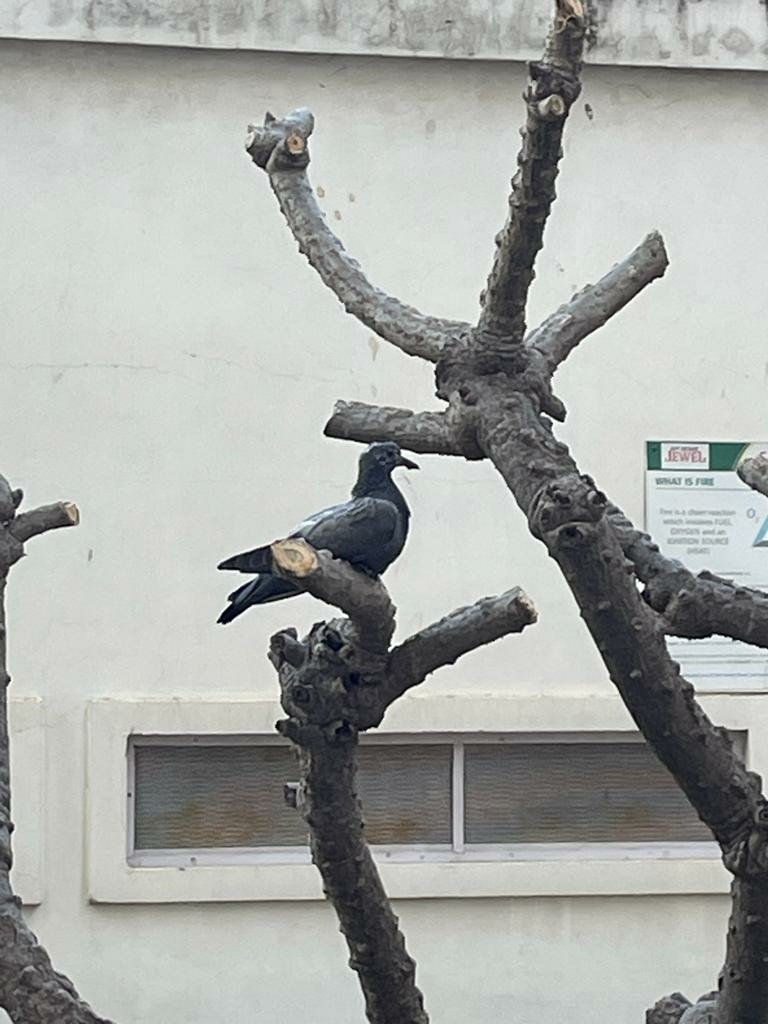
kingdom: Animalia
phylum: Chordata
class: Aves
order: Columbiformes
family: Columbidae
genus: Columba
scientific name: Columba livia
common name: Rock pigeon
